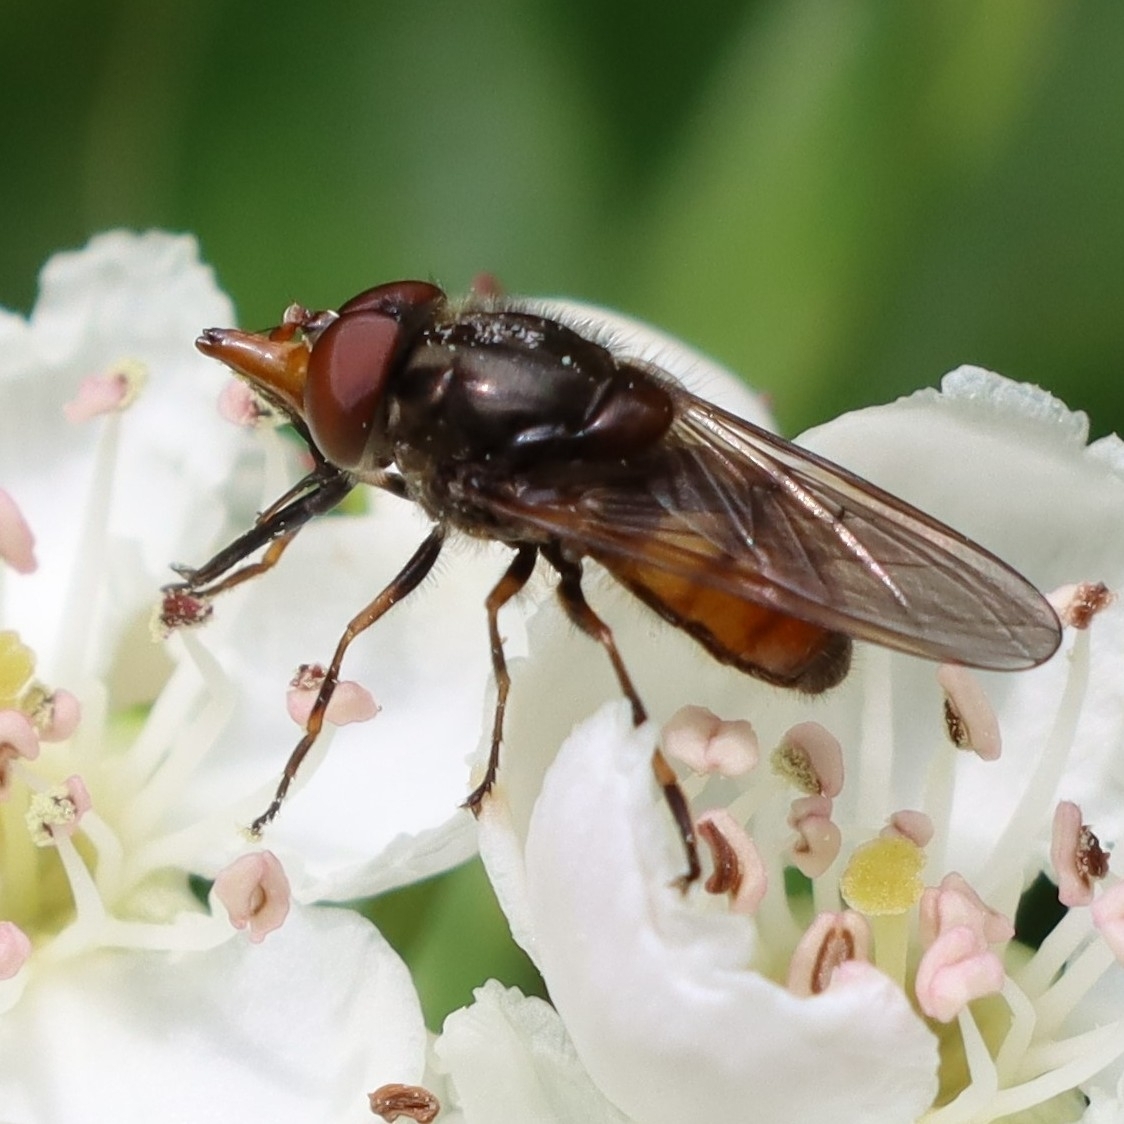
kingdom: Animalia
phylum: Arthropoda
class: Insecta
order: Diptera
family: Syrphidae
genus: Rhingia
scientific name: Rhingia campestris
